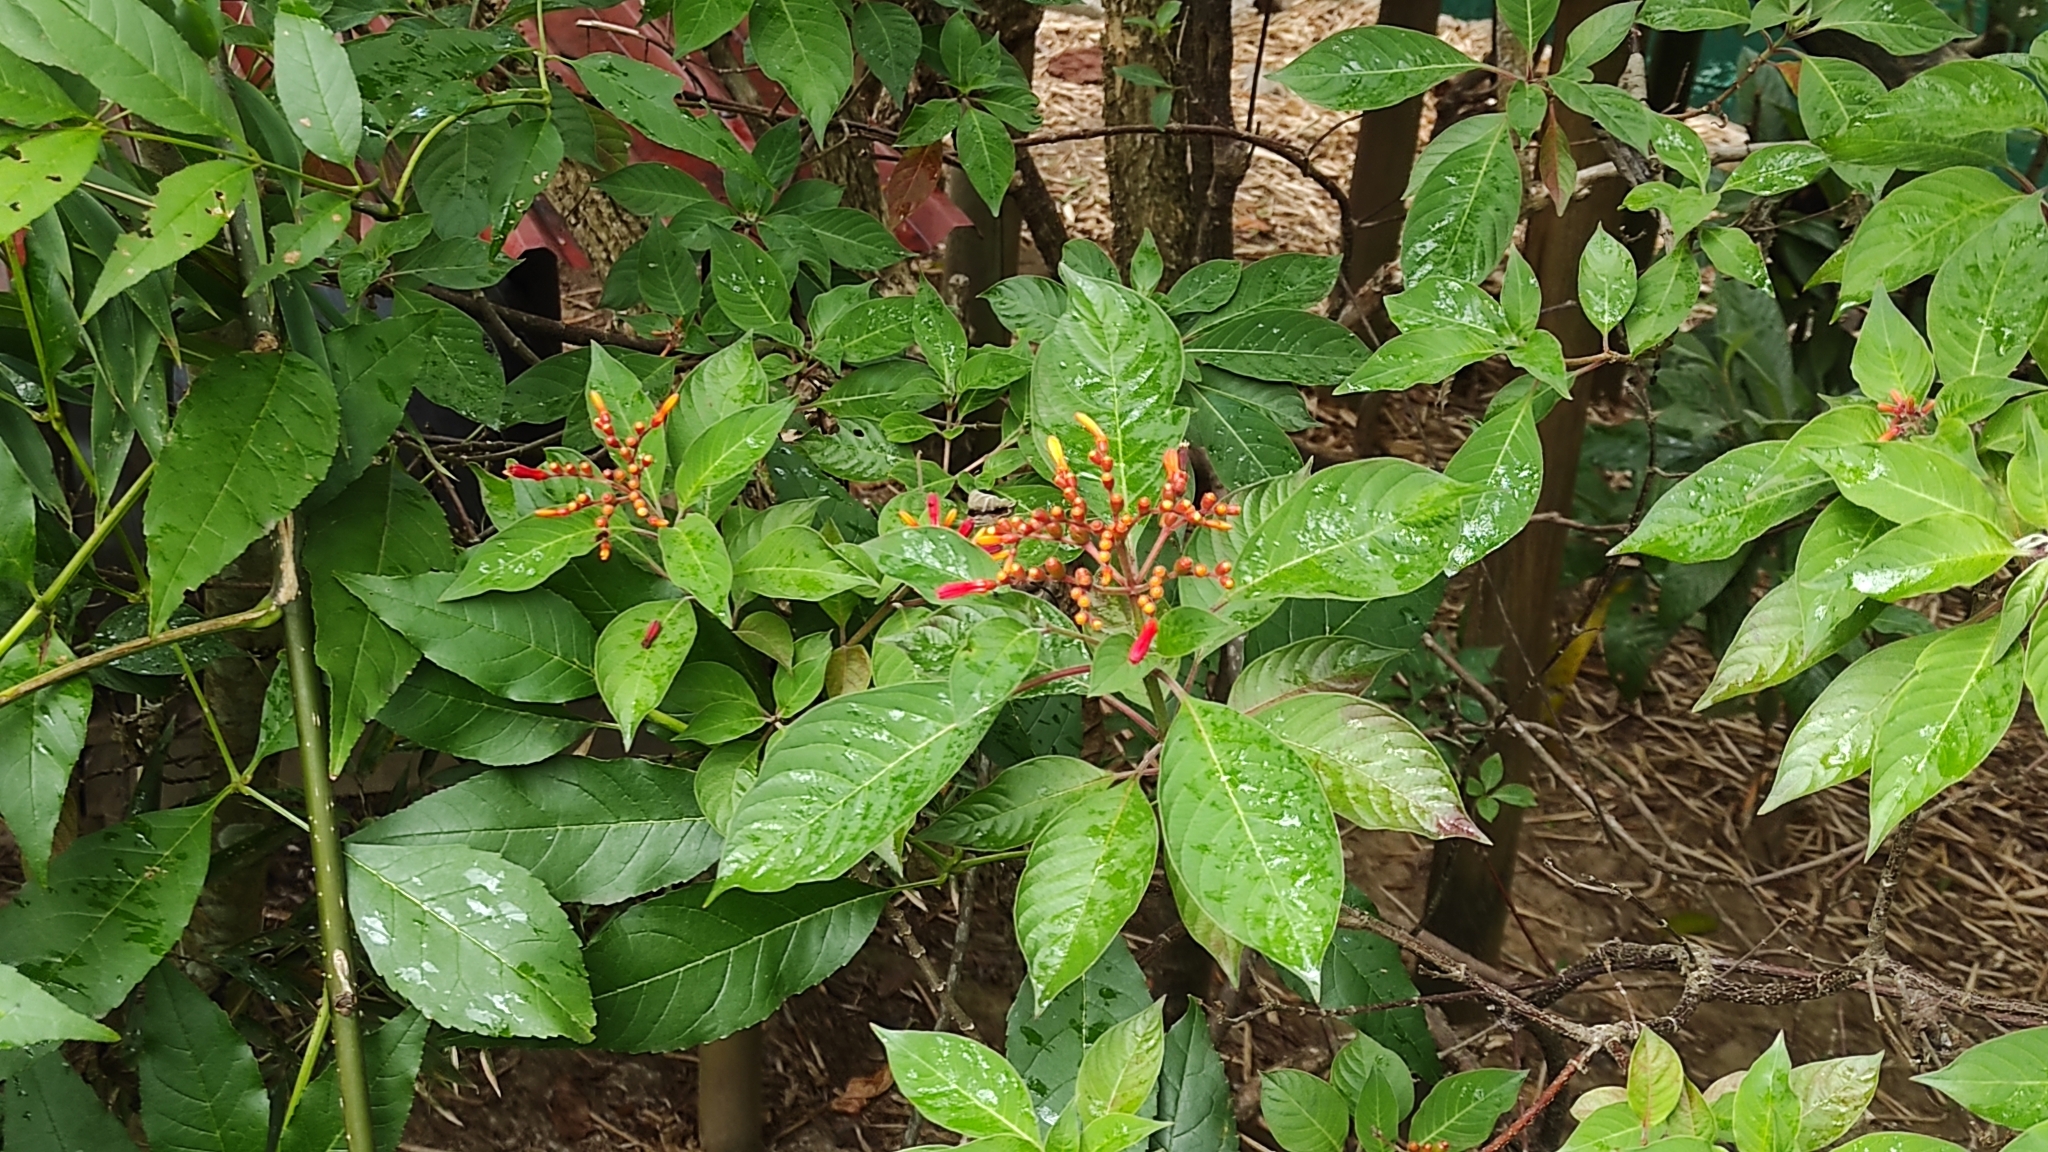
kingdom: Plantae
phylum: Tracheophyta
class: Magnoliopsida
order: Gentianales
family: Rubiaceae
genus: Hamelia
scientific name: Hamelia patens
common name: Redhead
